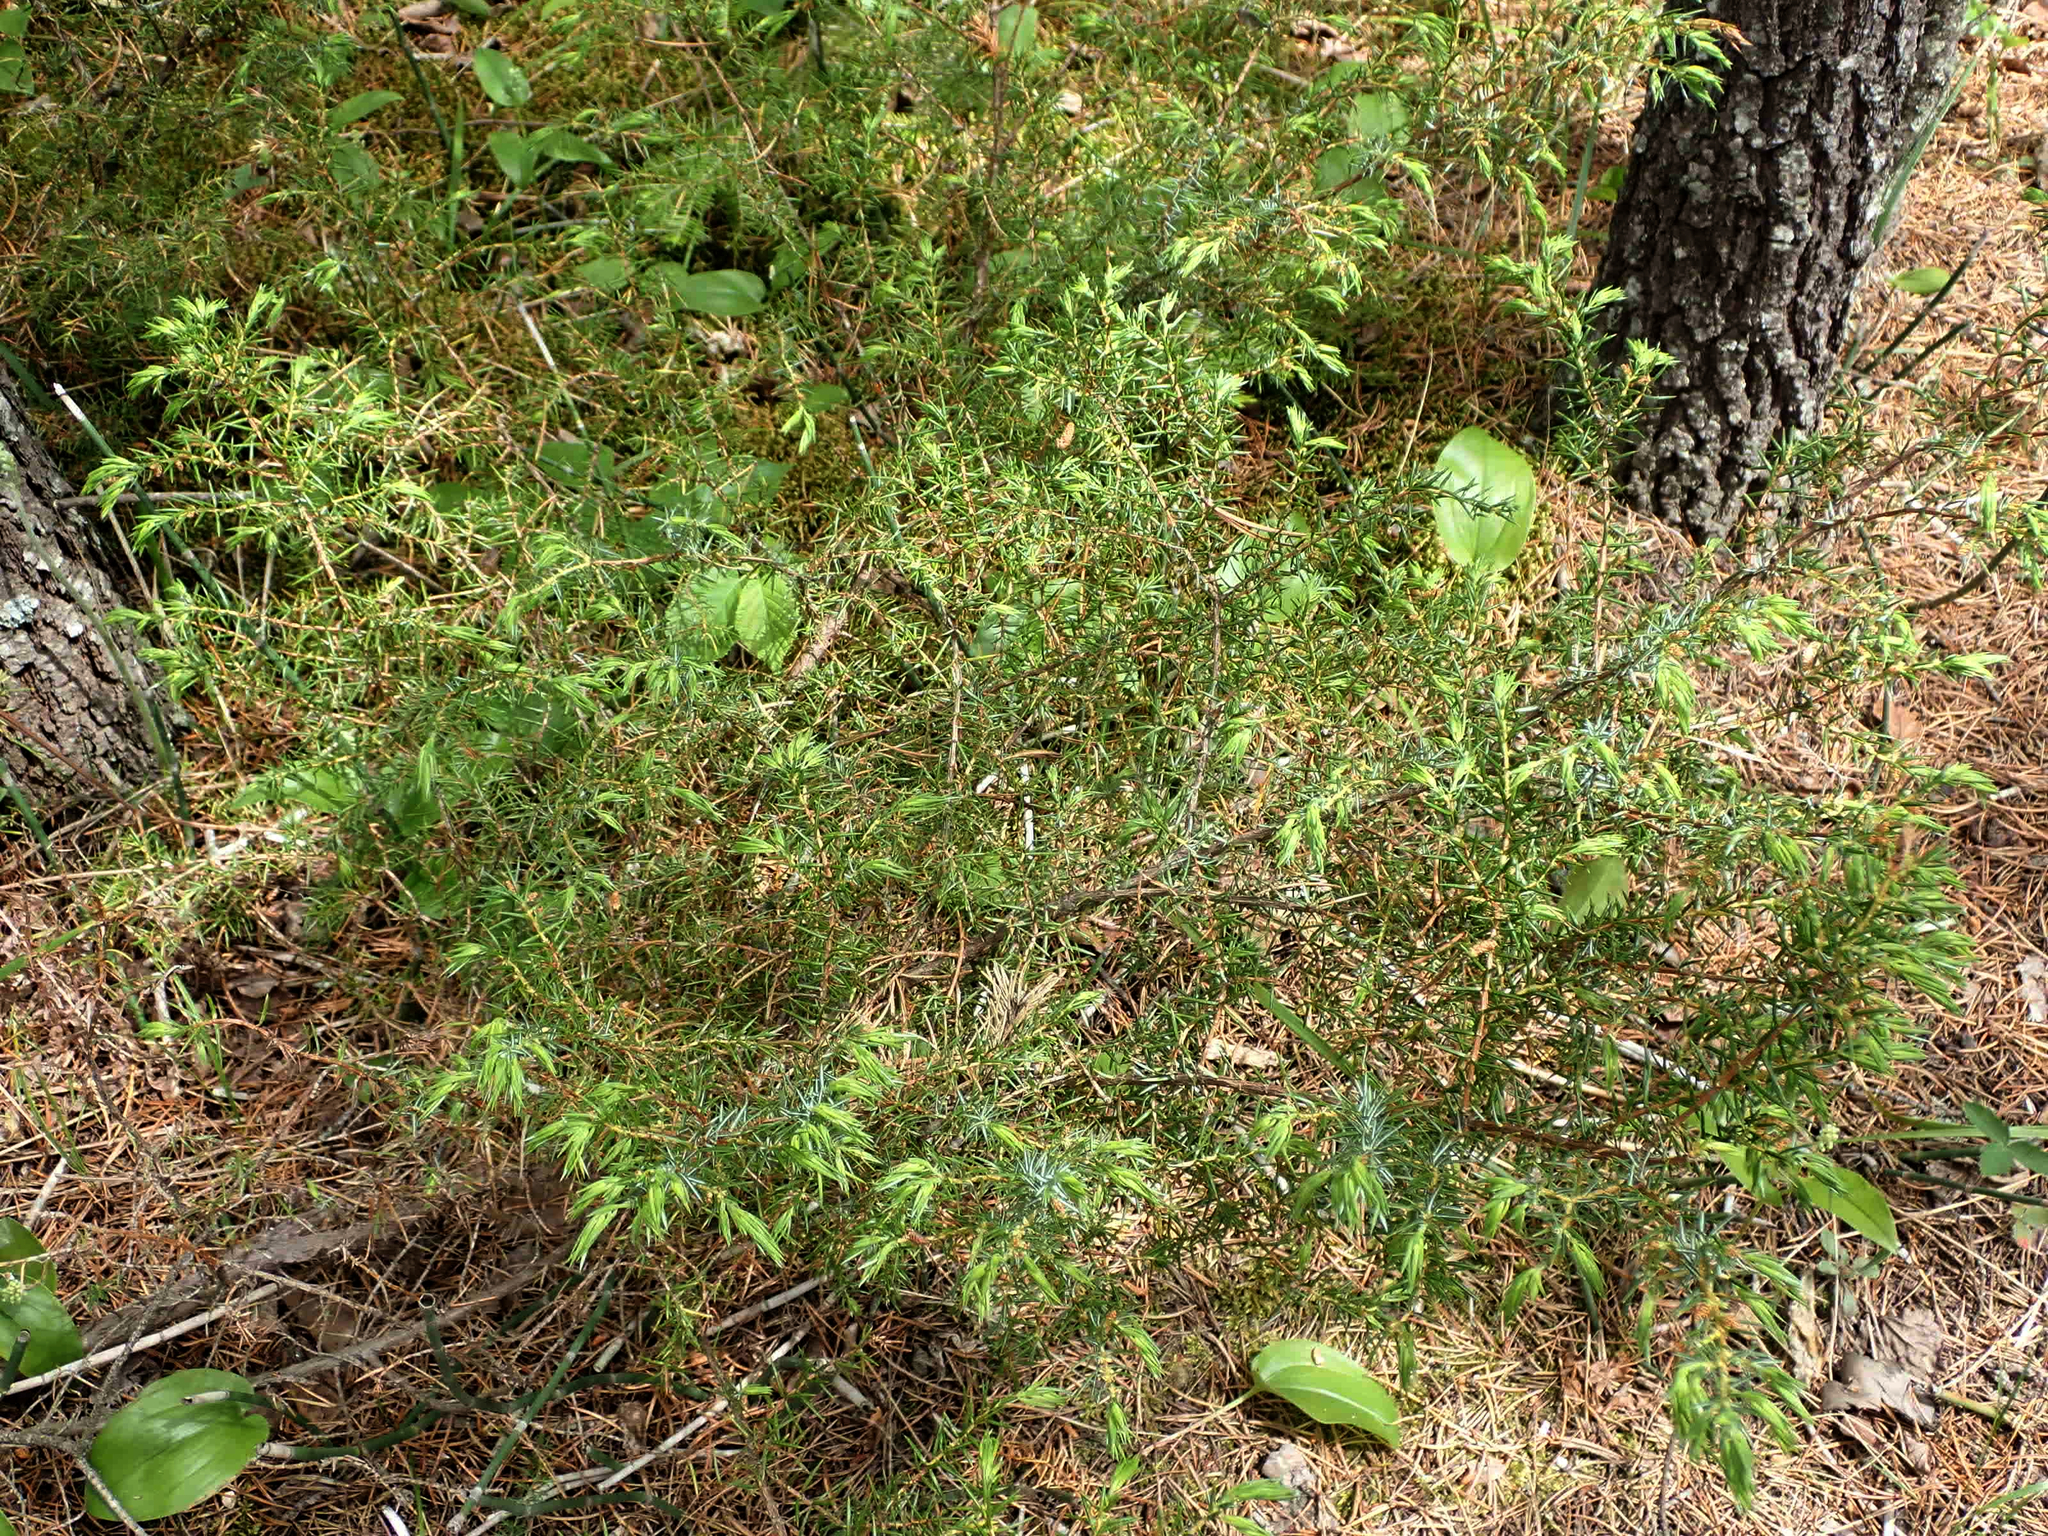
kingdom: Plantae
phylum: Tracheophyta
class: Pinopsida
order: Pinales
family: Cupressaceae
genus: Juniperus
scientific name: Juniperus communis
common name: Common juniper
